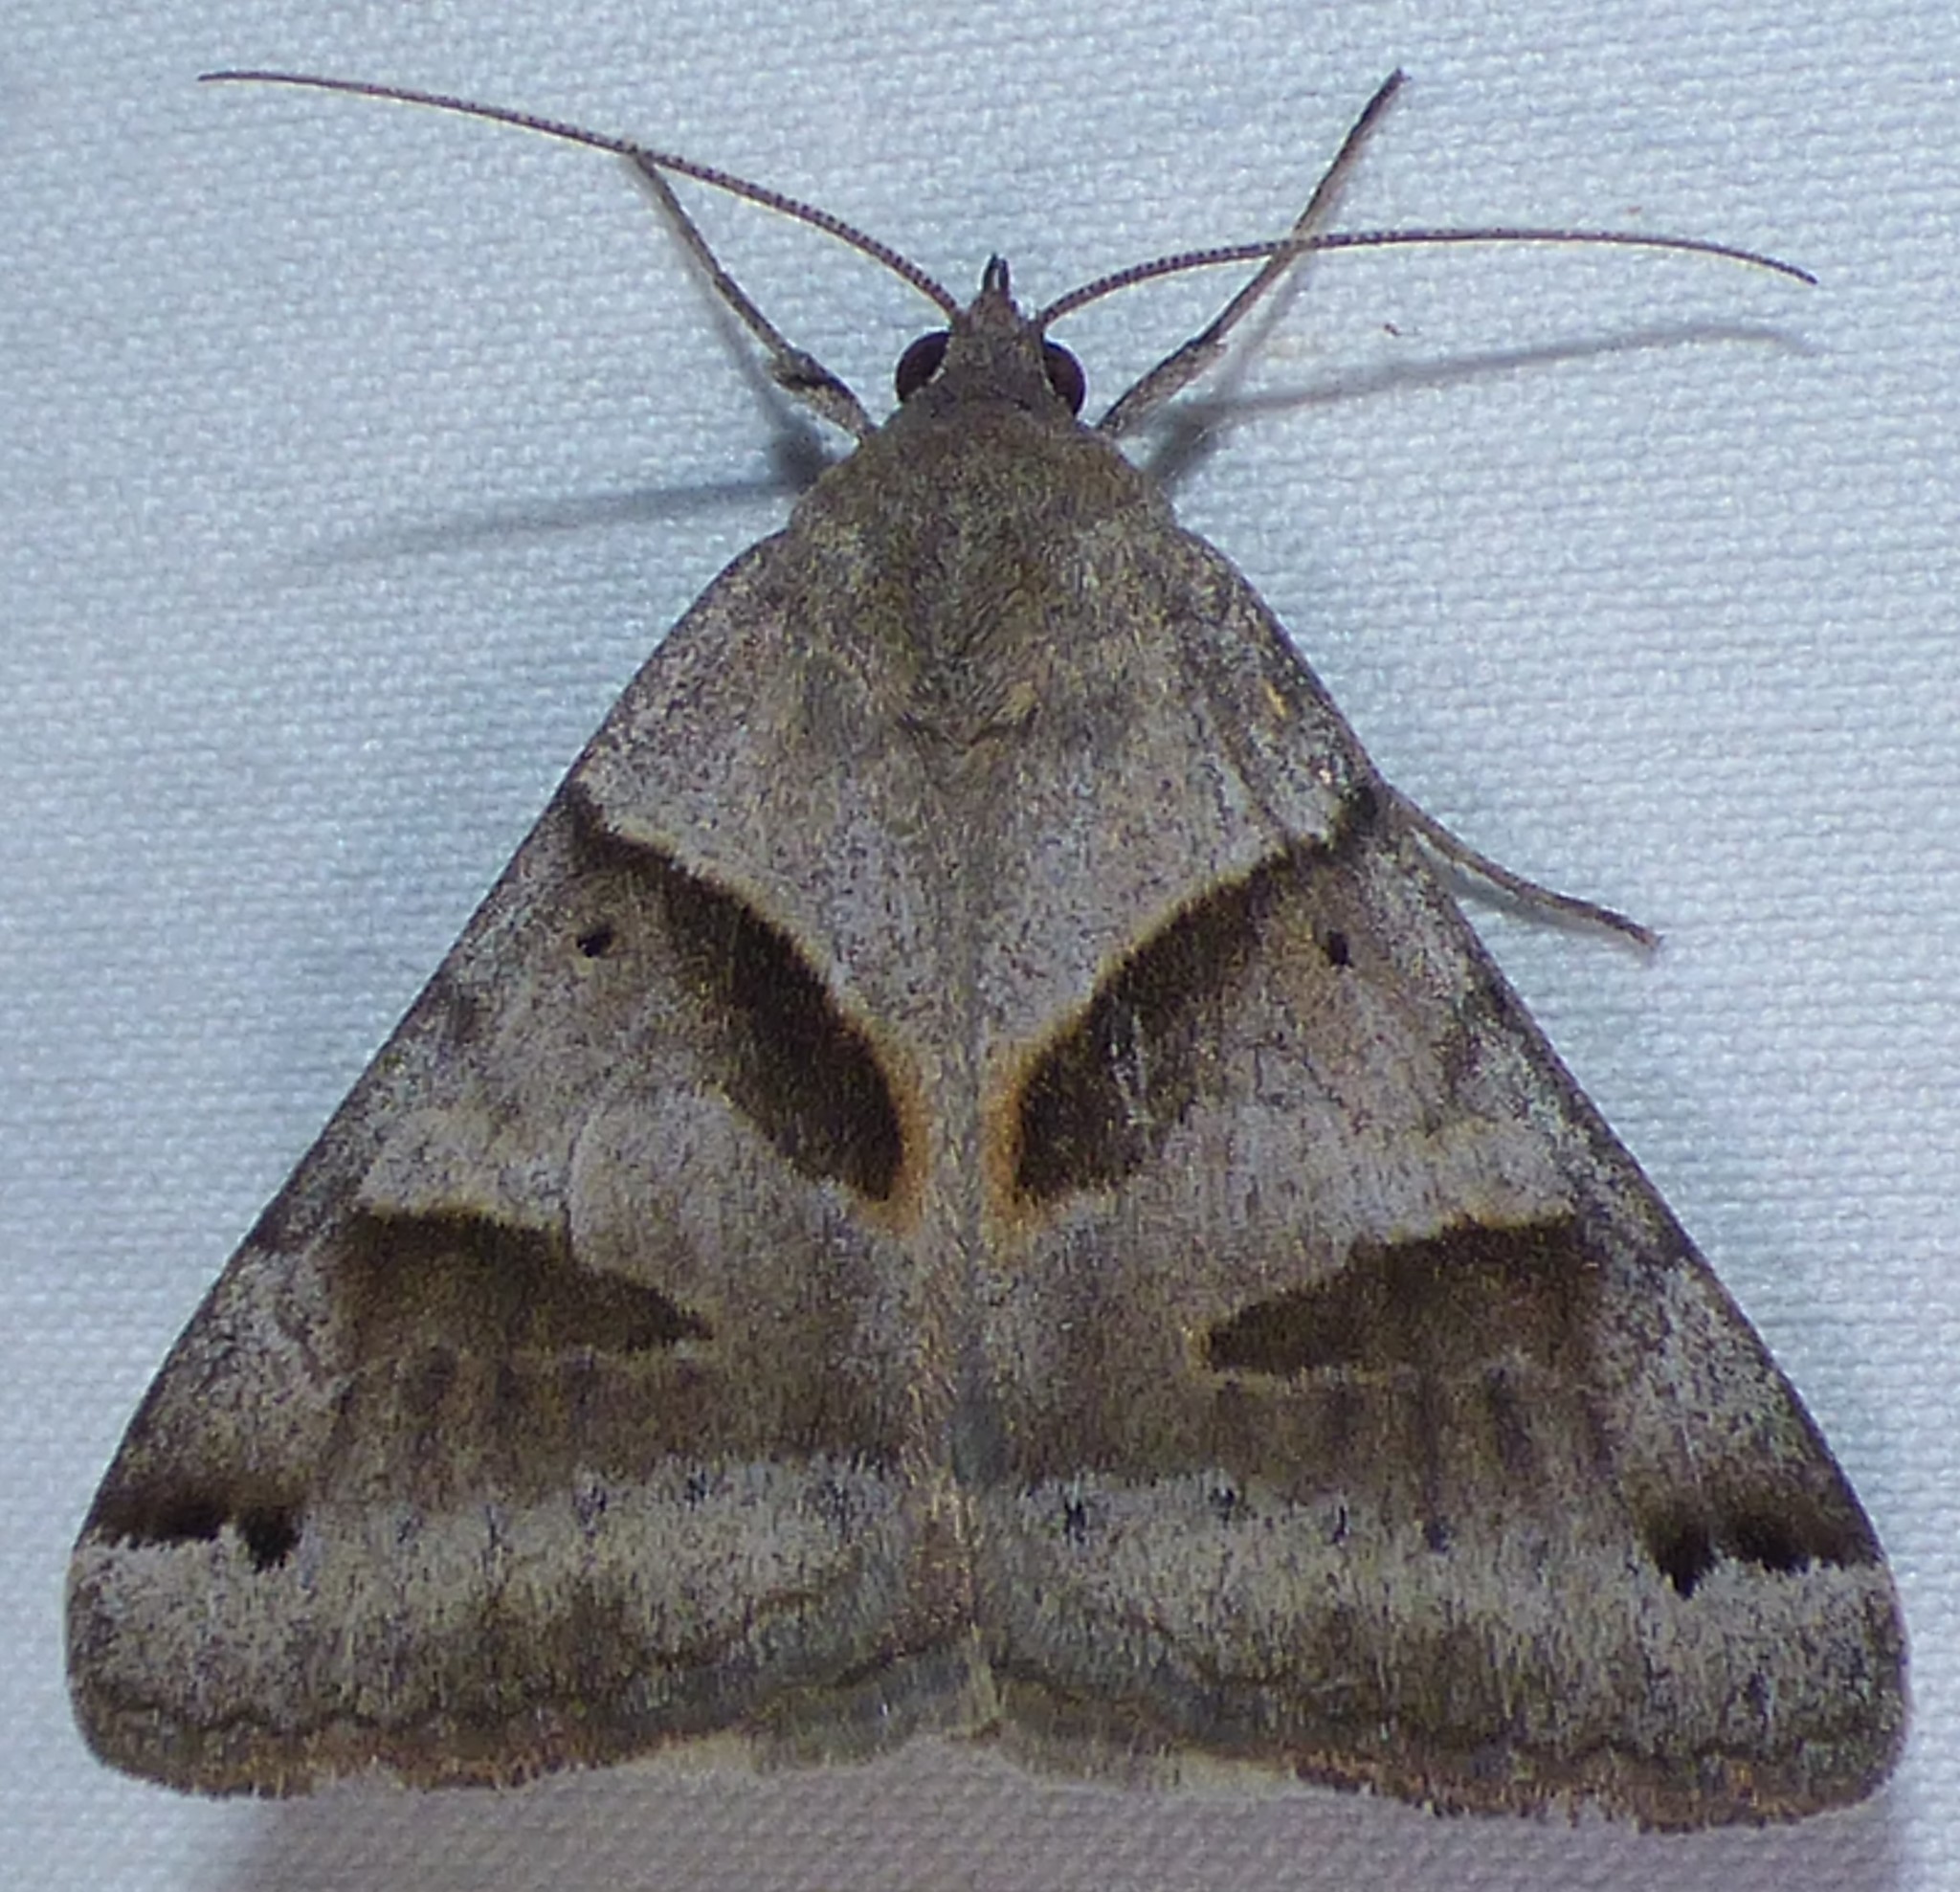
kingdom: Animalia
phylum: Arthropoda
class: Insecta
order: Lepidoptera
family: Erebidae
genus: Caenurgina
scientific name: Caenurgina erechtea
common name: Forage looper moth
